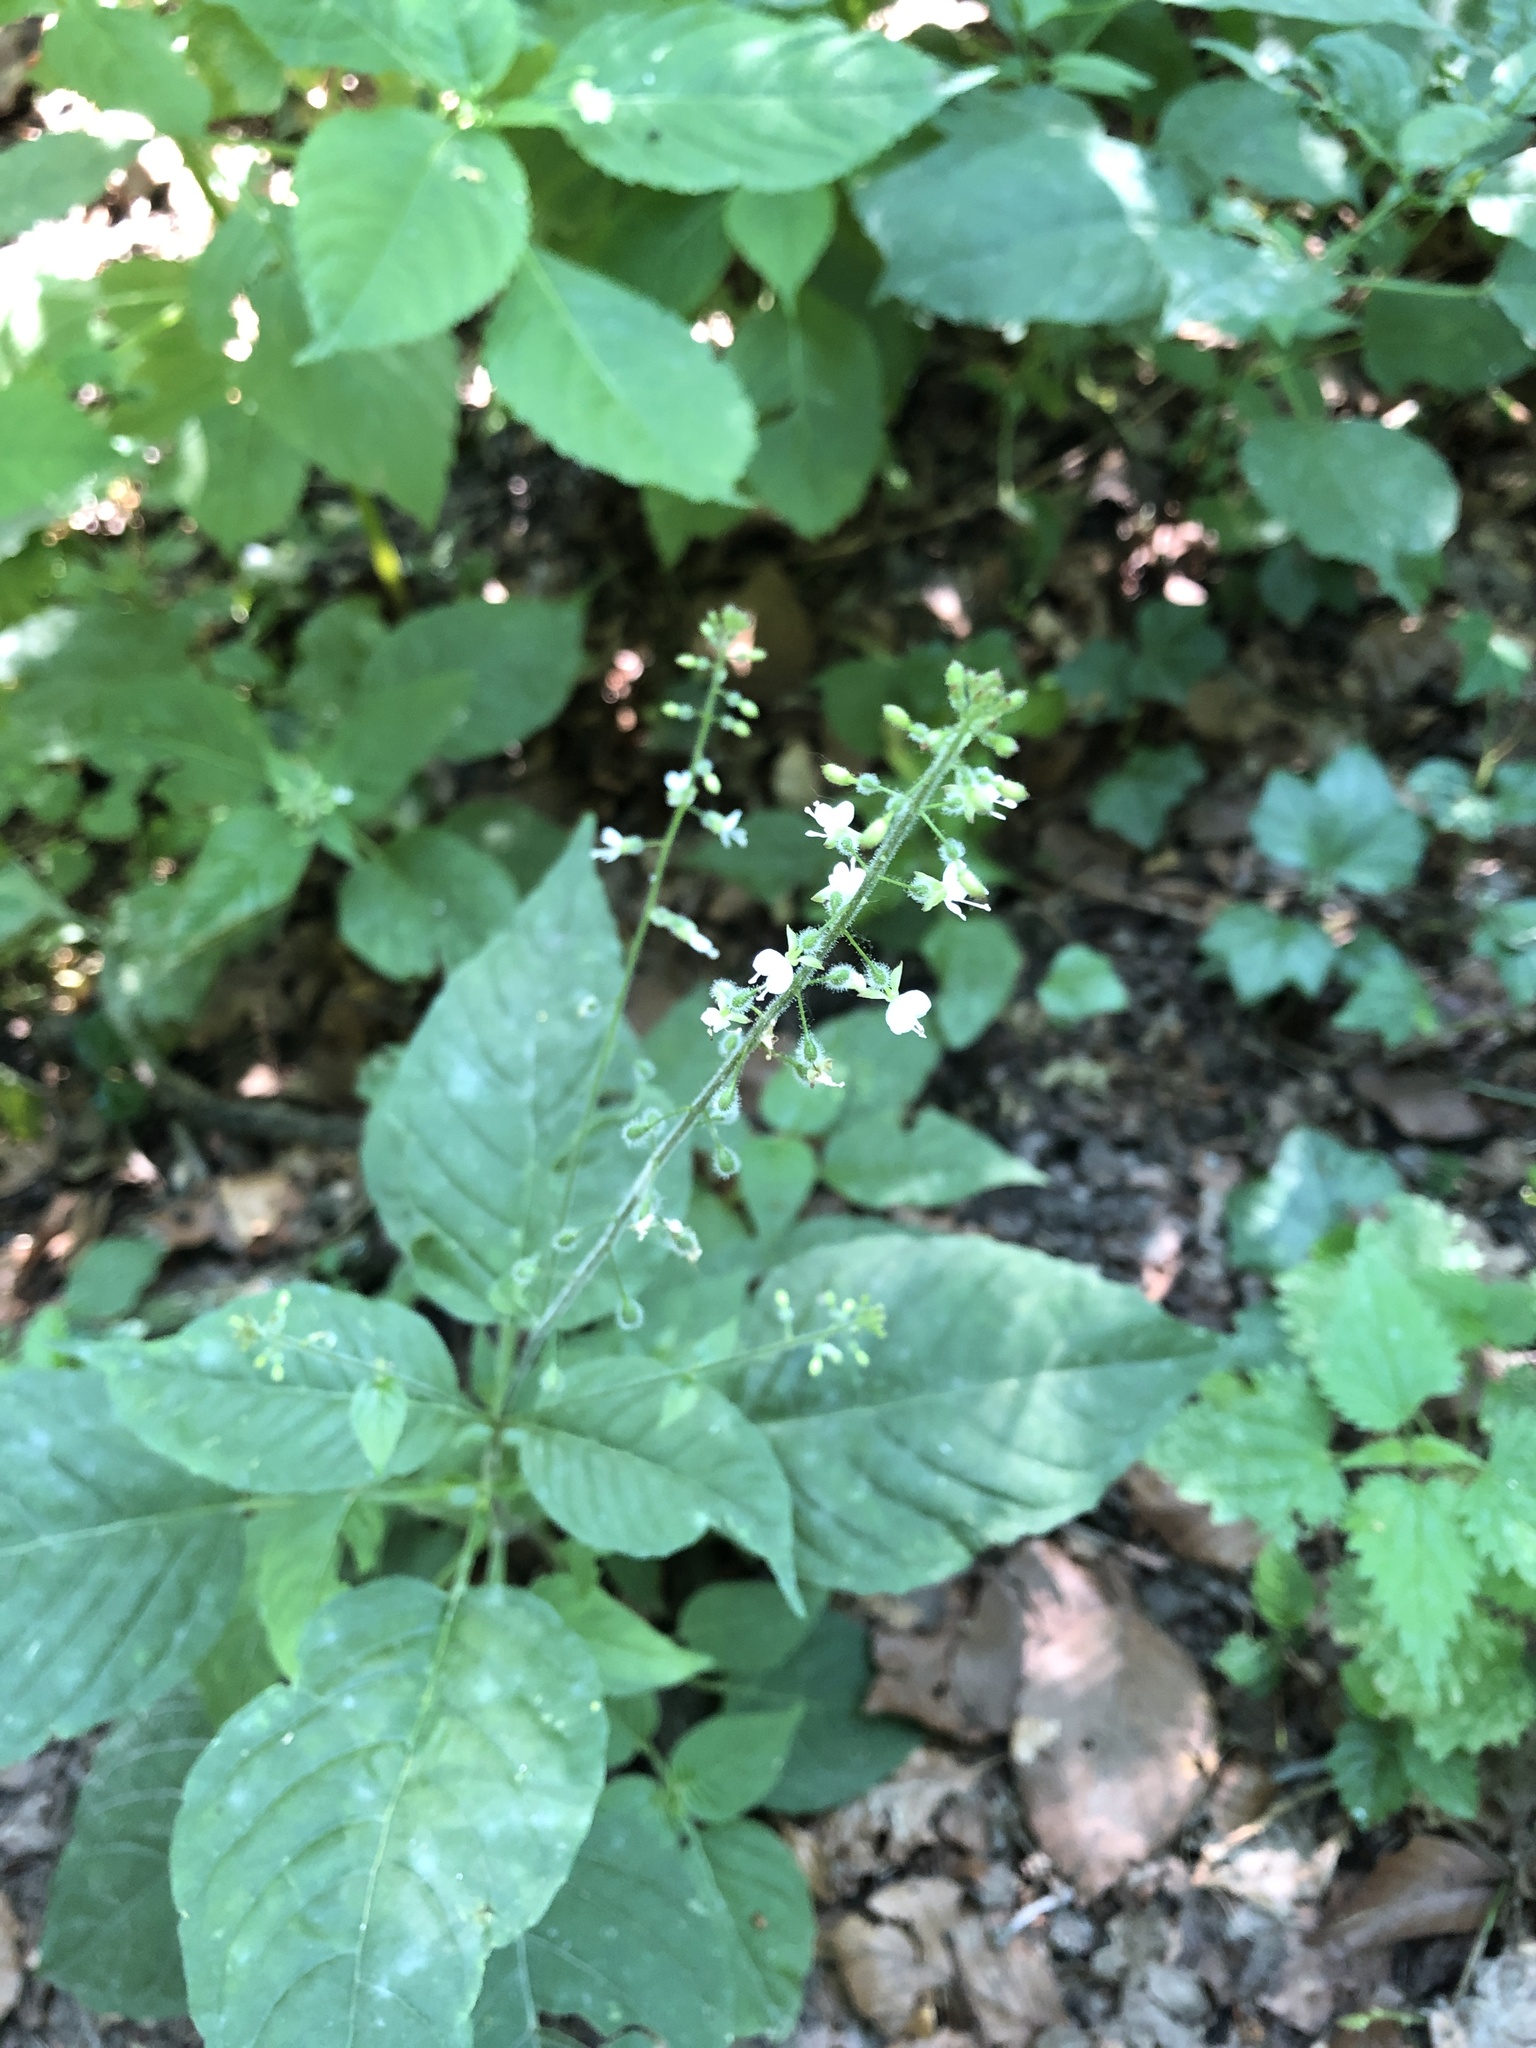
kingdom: Plantae
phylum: Tracheophyta
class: Magnoliopsida
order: Myrtales
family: Onagraceae
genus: Circaea
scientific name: Circaea lutetiana
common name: Enchanter's-nightshade
